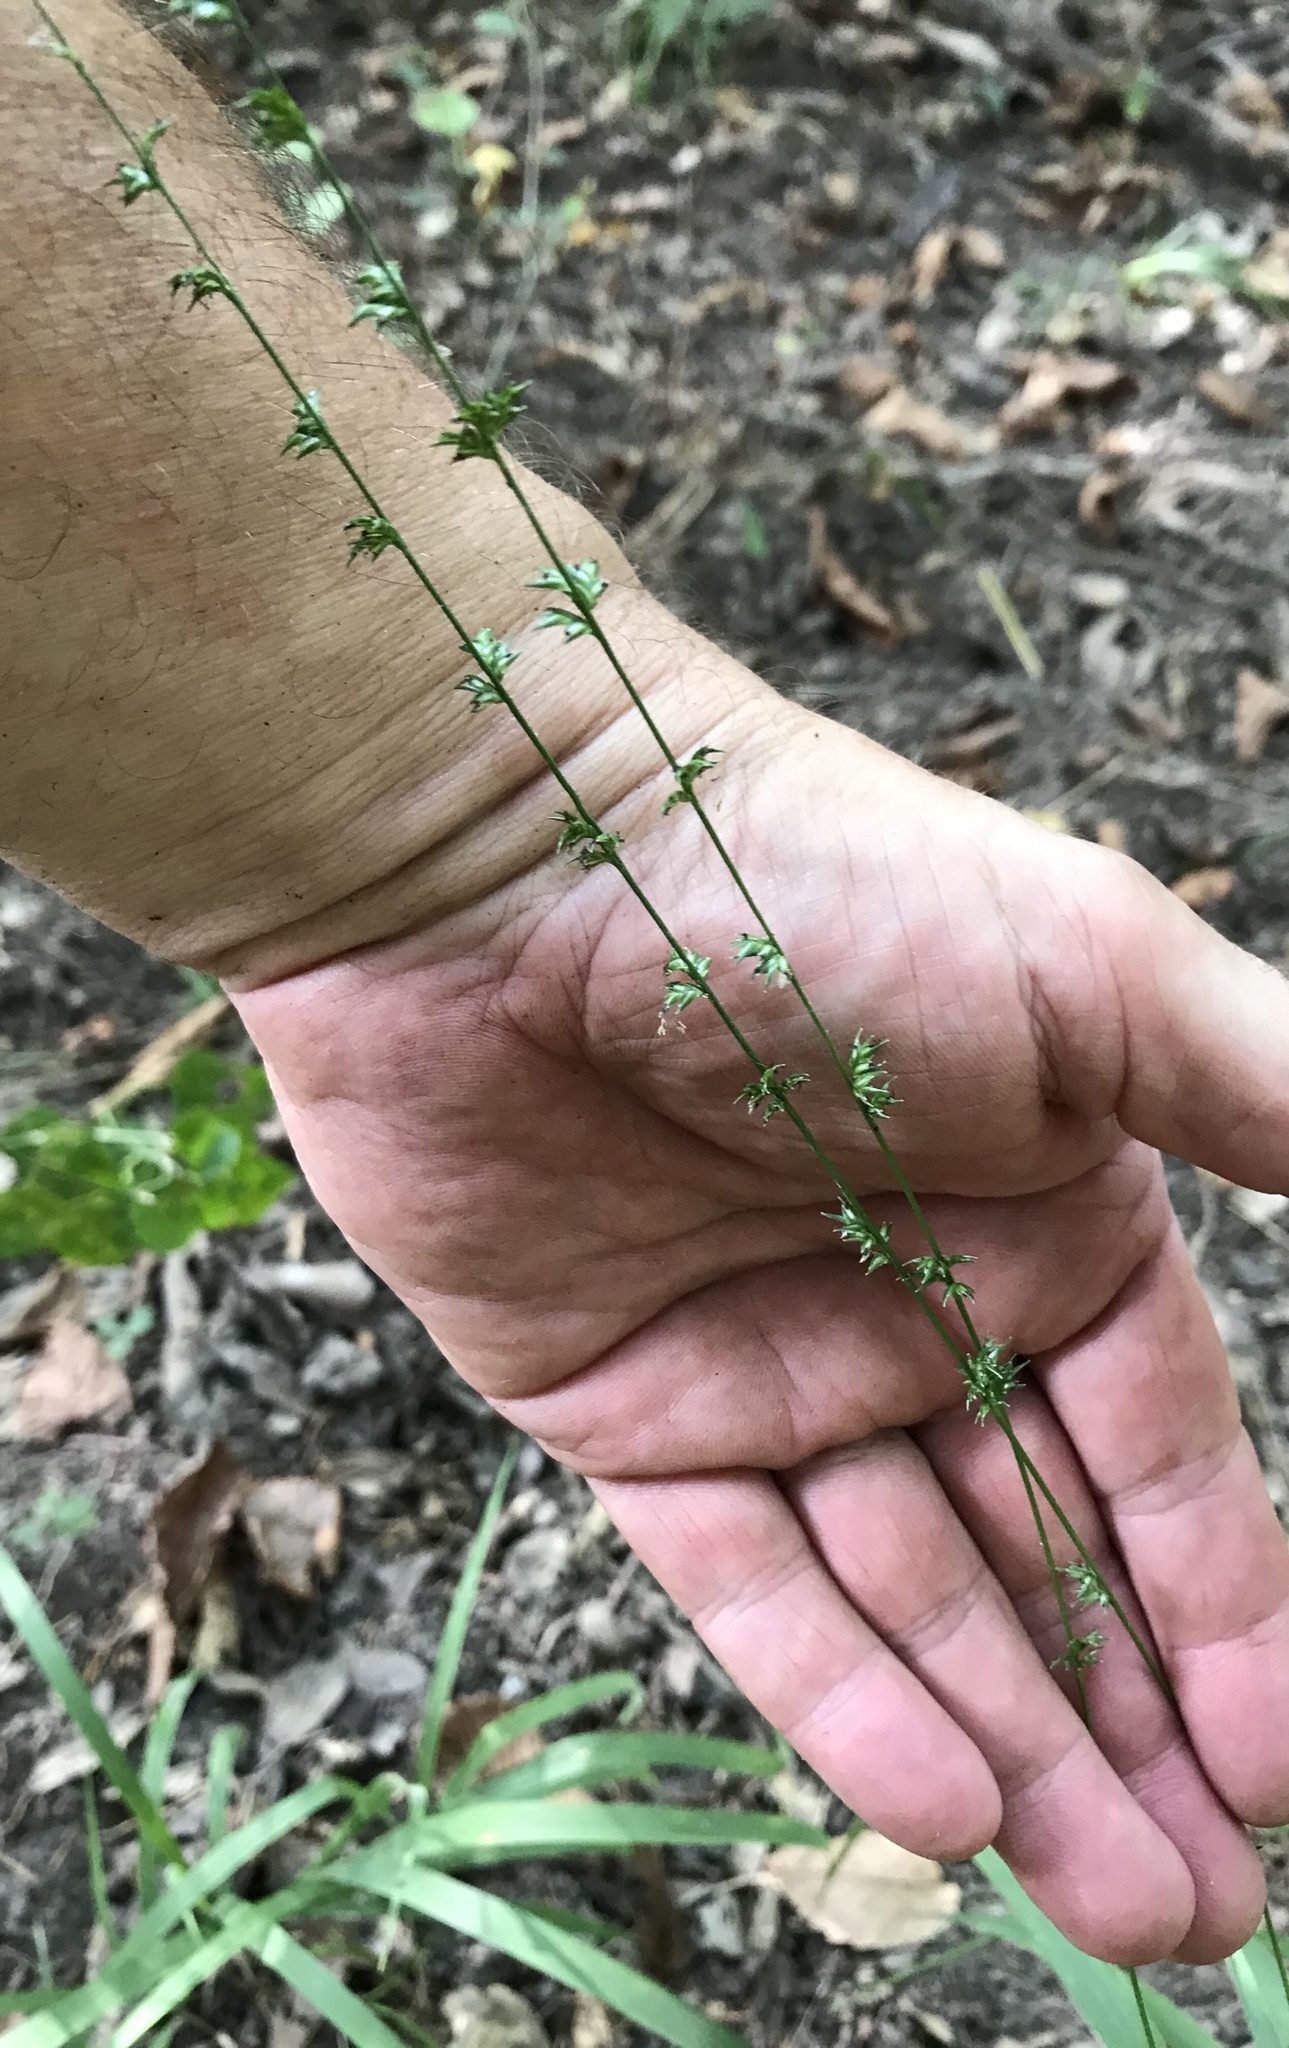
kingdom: Plantae
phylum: Tracheophyta
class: Liliopsida
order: Poales
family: Poaceae
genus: Chasmanthium
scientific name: Chasmanthium laxum
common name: Slender chasmanthium
